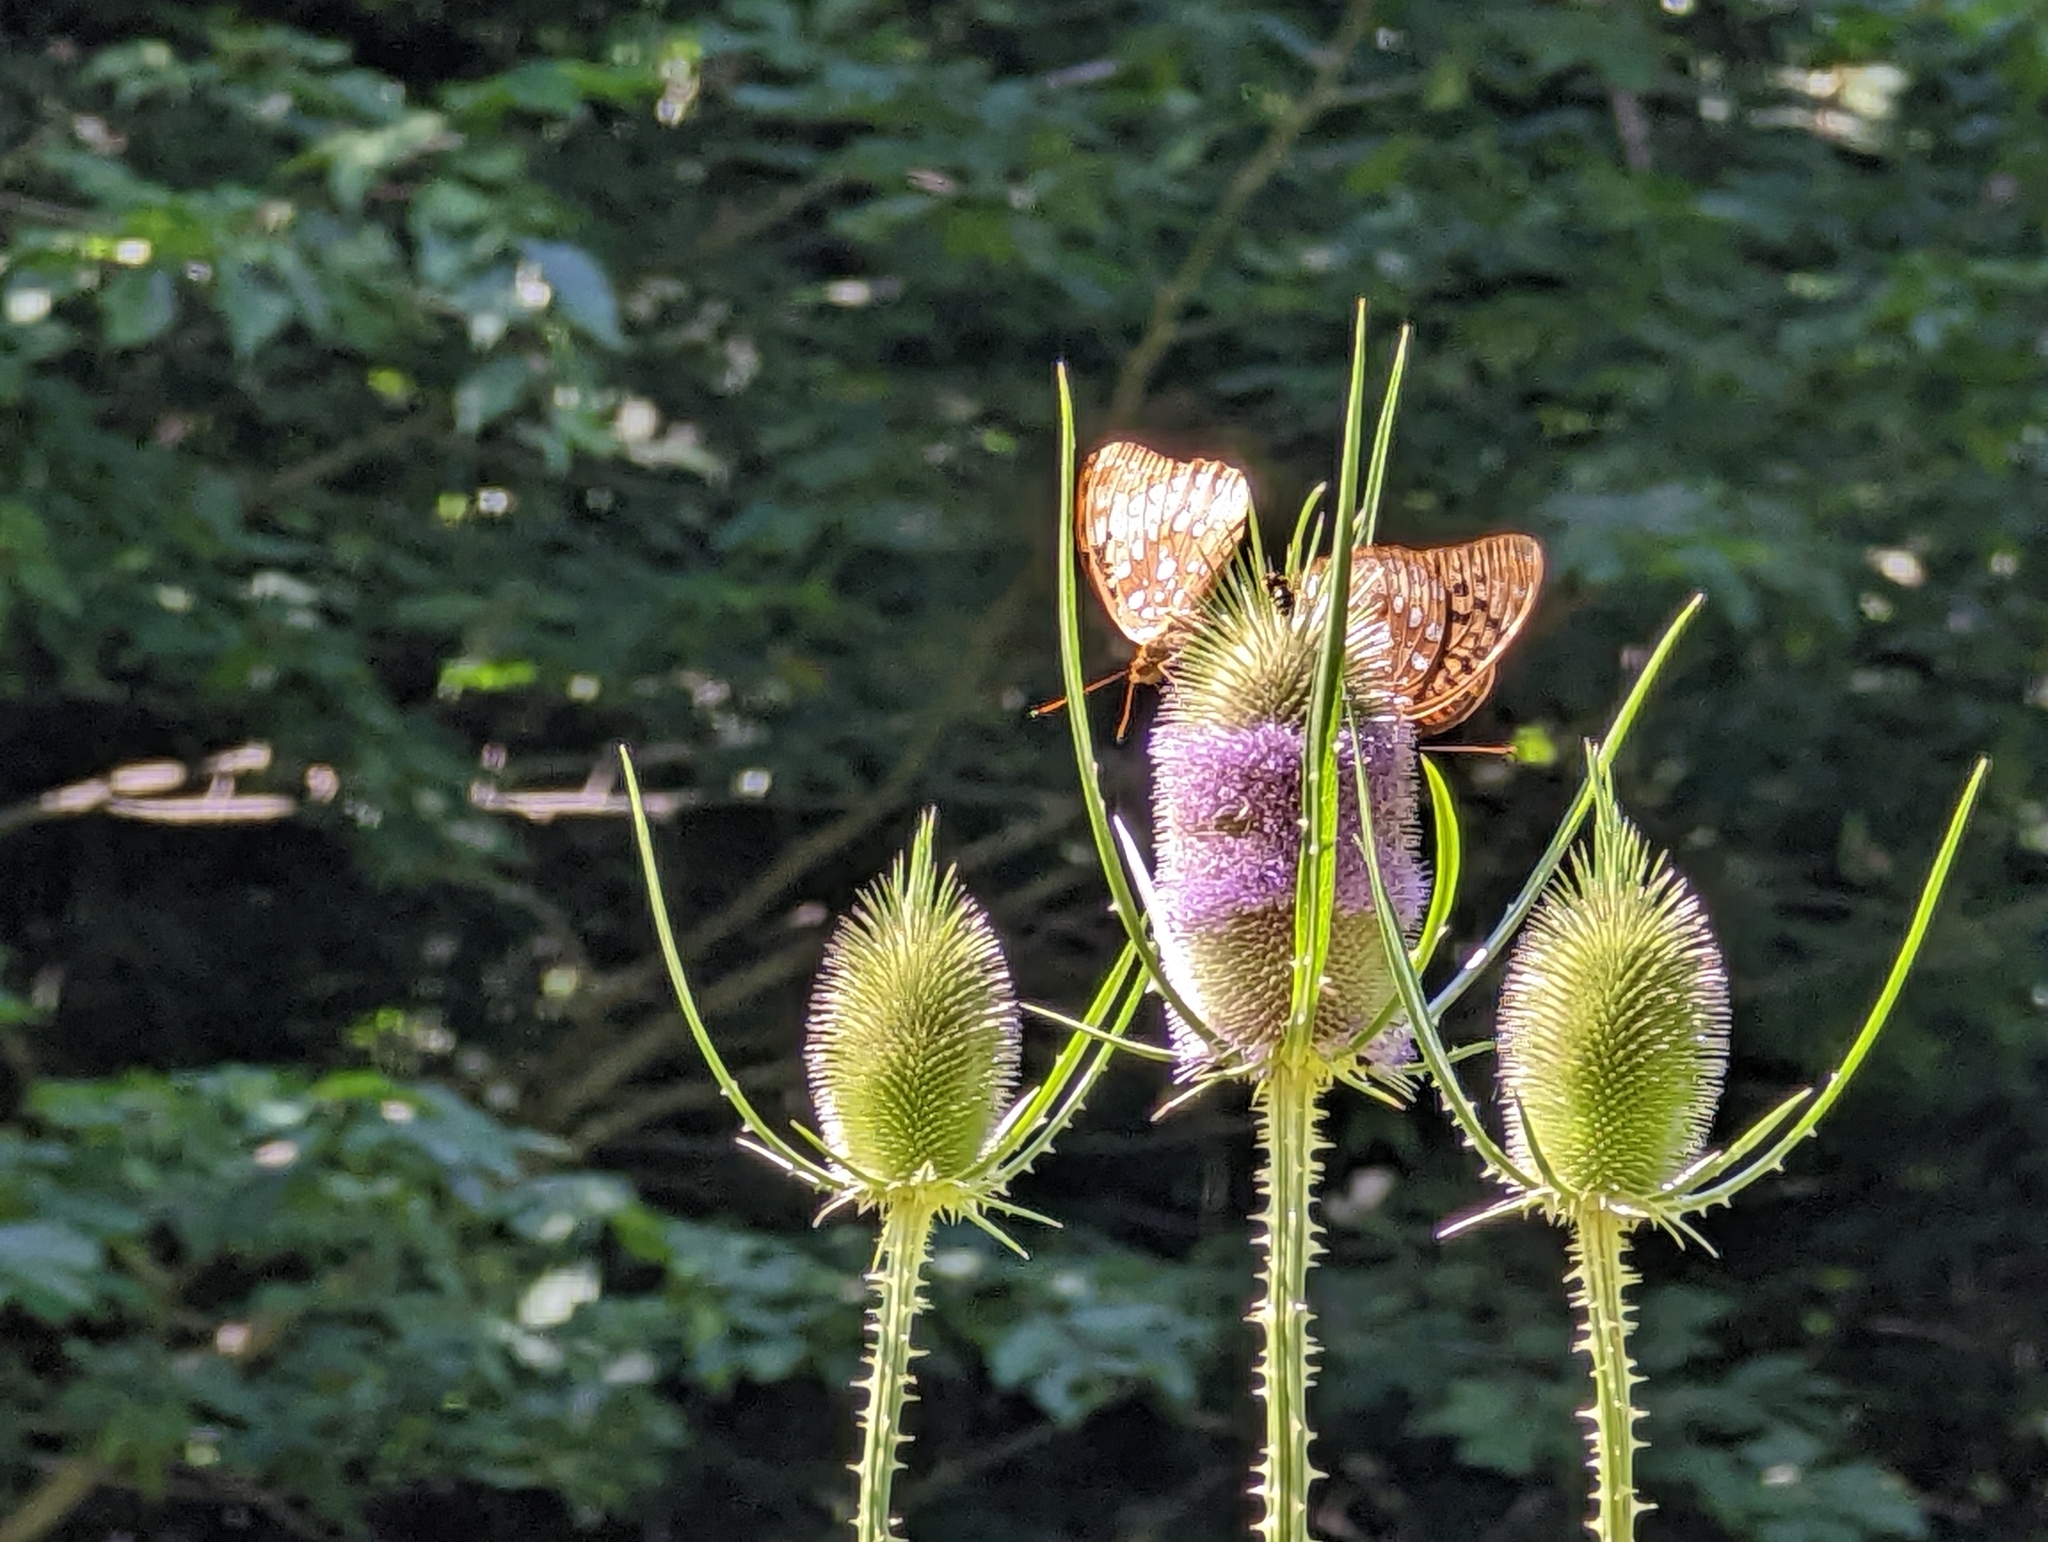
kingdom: Animalia
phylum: Arthropoda
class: Insecta
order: Lepidoptera
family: Nymphalidae
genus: Speyeria
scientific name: Speyeria cybele
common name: Great spangled fritillary
